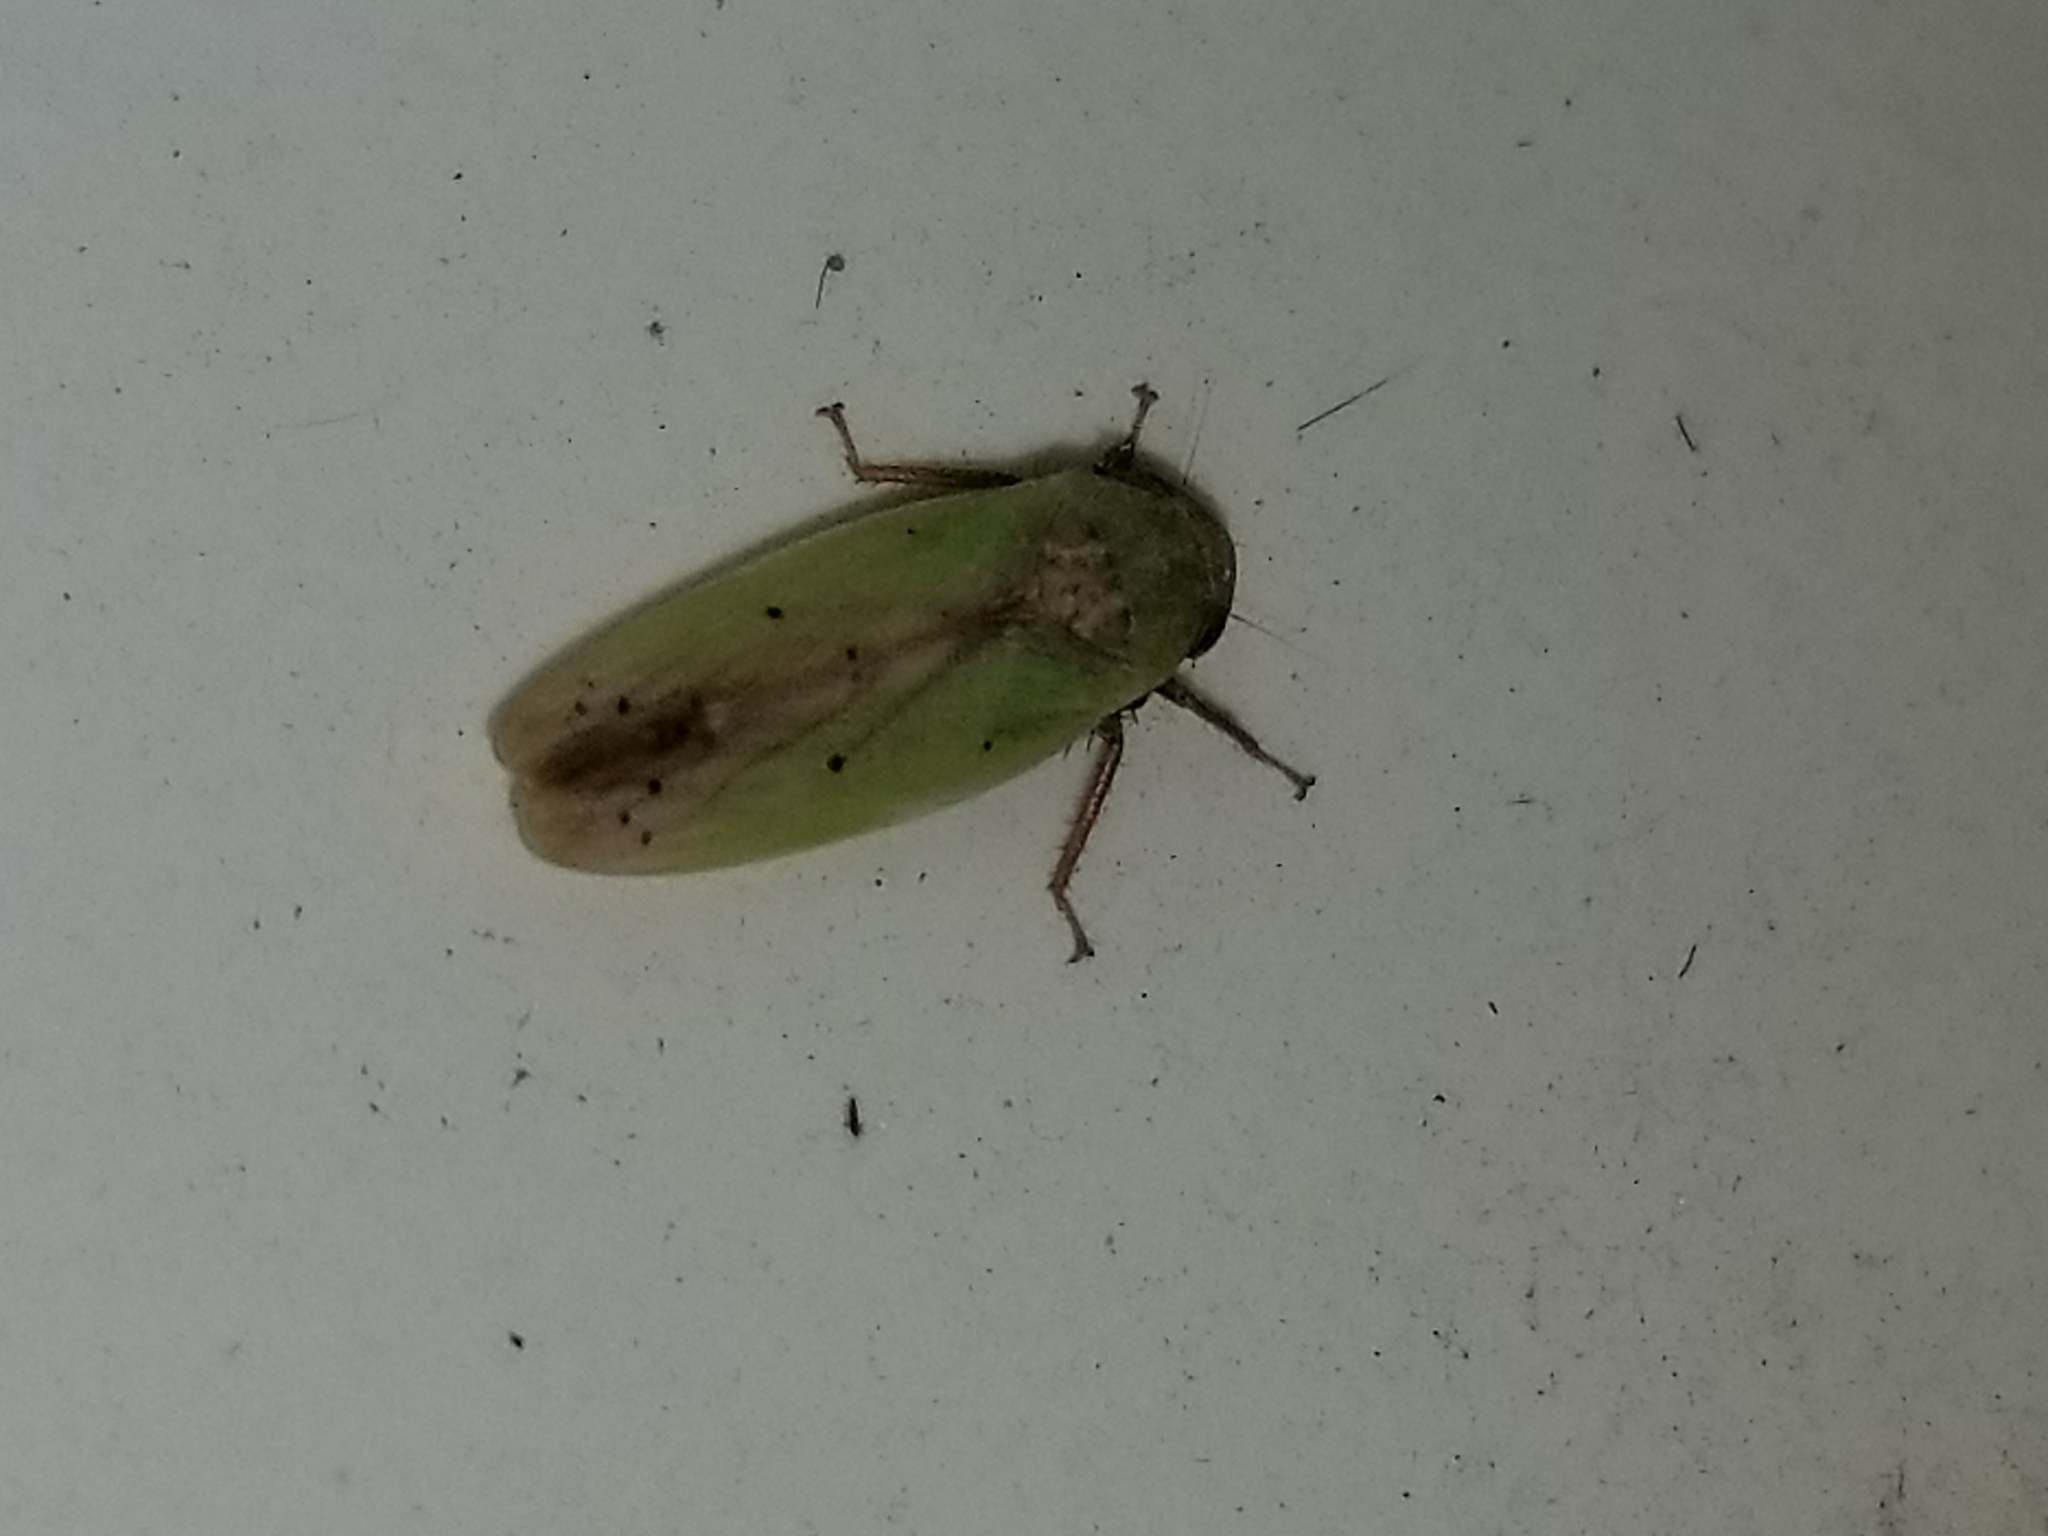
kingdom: Animalia
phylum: Arthropoda
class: Insecta
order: Hemiptera
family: Cicadellidae
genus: Ponana
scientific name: Ponana pectoralis
